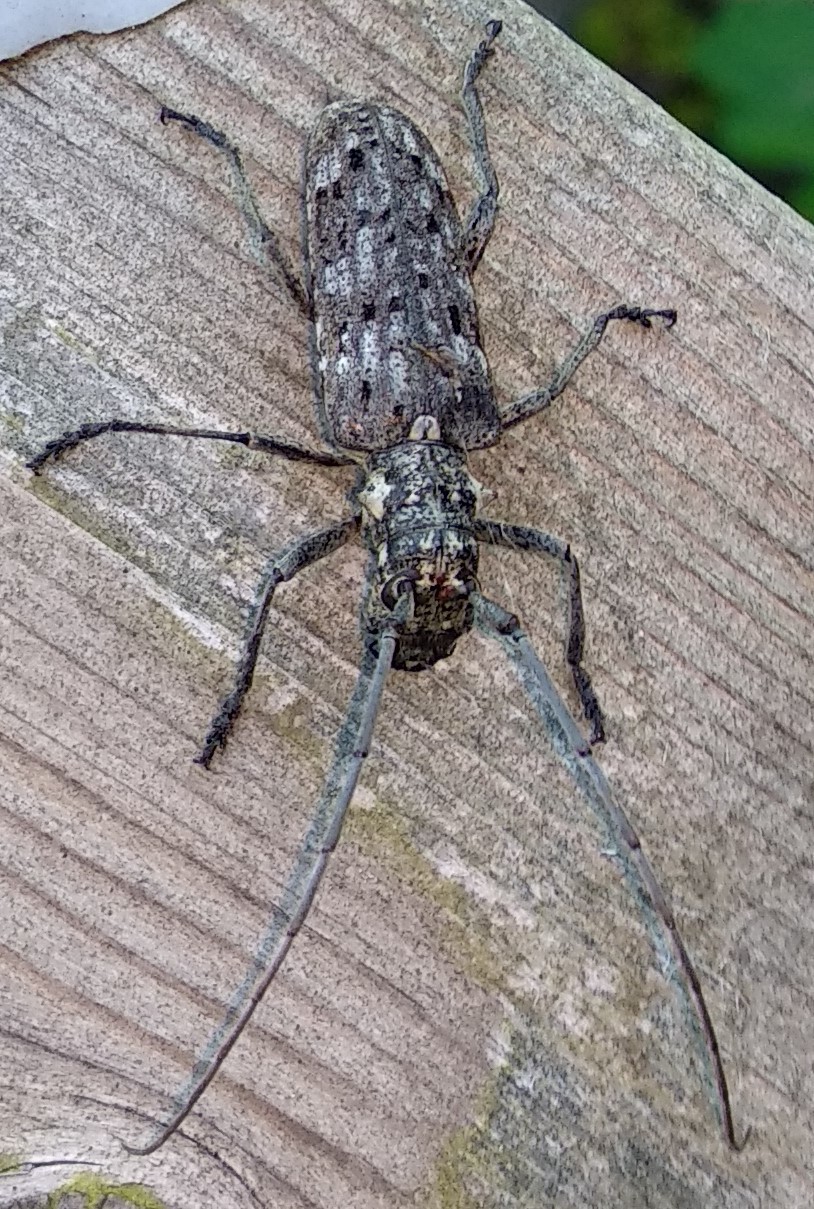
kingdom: Animalia
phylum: Arthropoda
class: Insecta
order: Coleoptera
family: Cerambycidae
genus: Monochamus
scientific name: Monochamus notatus
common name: Northeastern pine sawyer beetle
